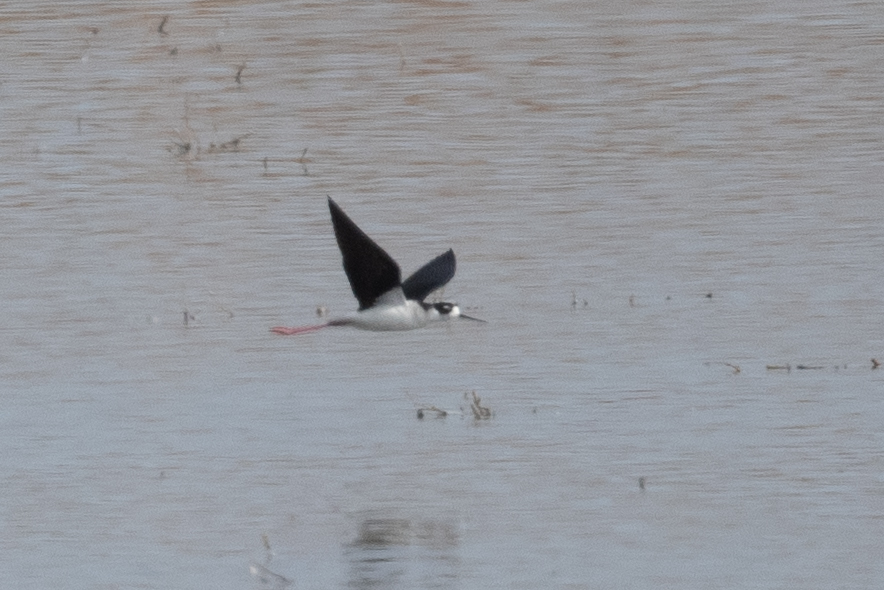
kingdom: Animalia
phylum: Chordata
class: Aves
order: Charadriiformes
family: Recurvirostridae
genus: Himantopus
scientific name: Himantopus mexicanus
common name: Black-necked stilt
